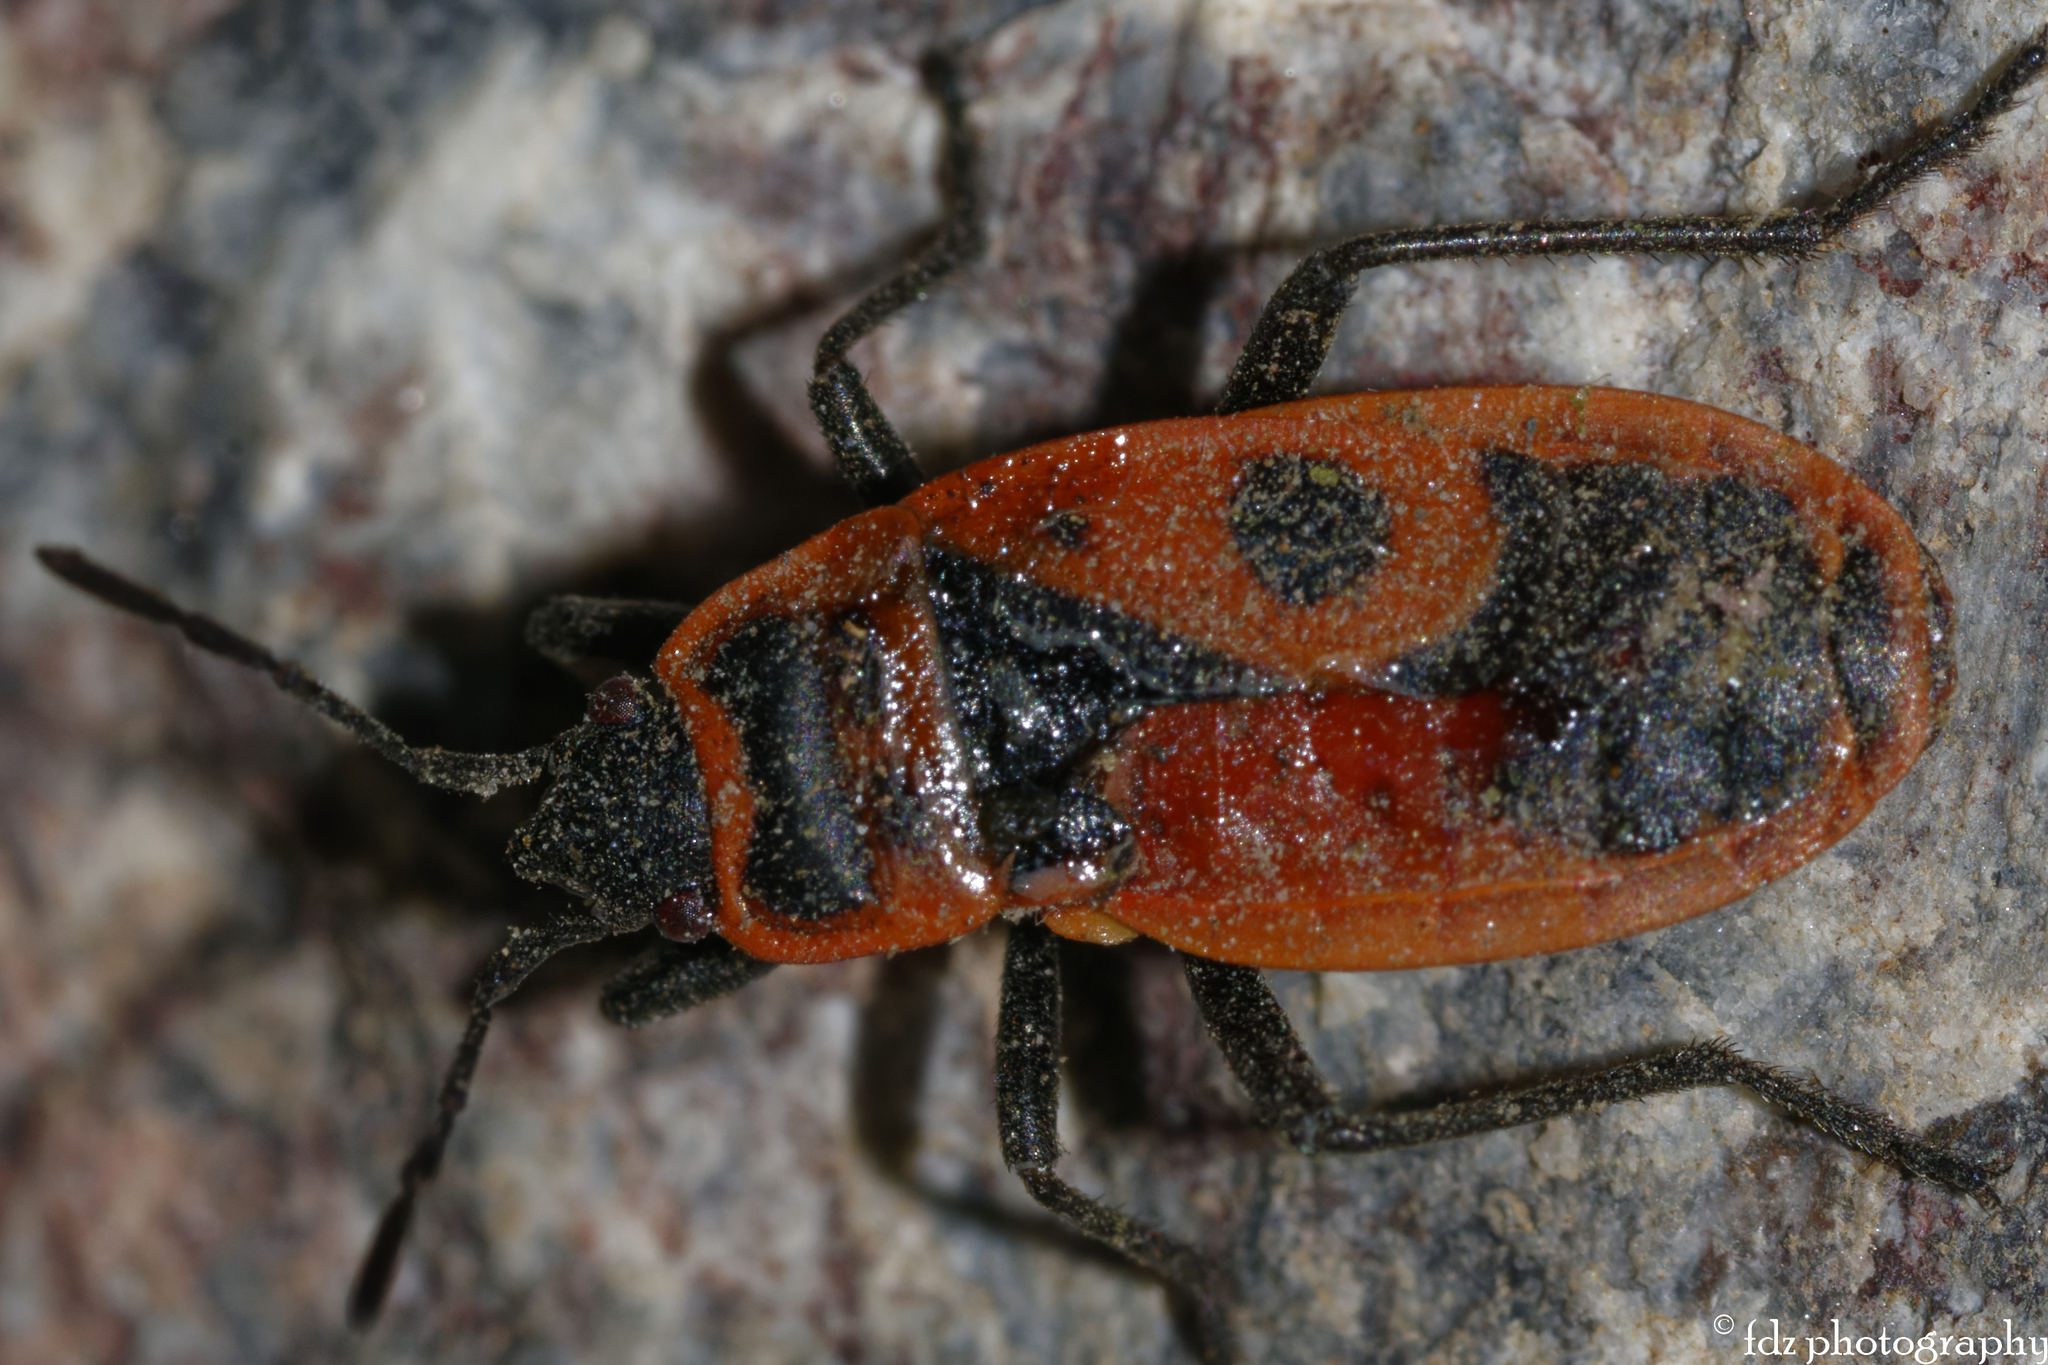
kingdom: Animalia
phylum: Arthropoda
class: Insecta
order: Hemiptera
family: Pyrrhocoridae
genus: Pyrrhocoris
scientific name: Pyrrhocoris apterus
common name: Firebug
